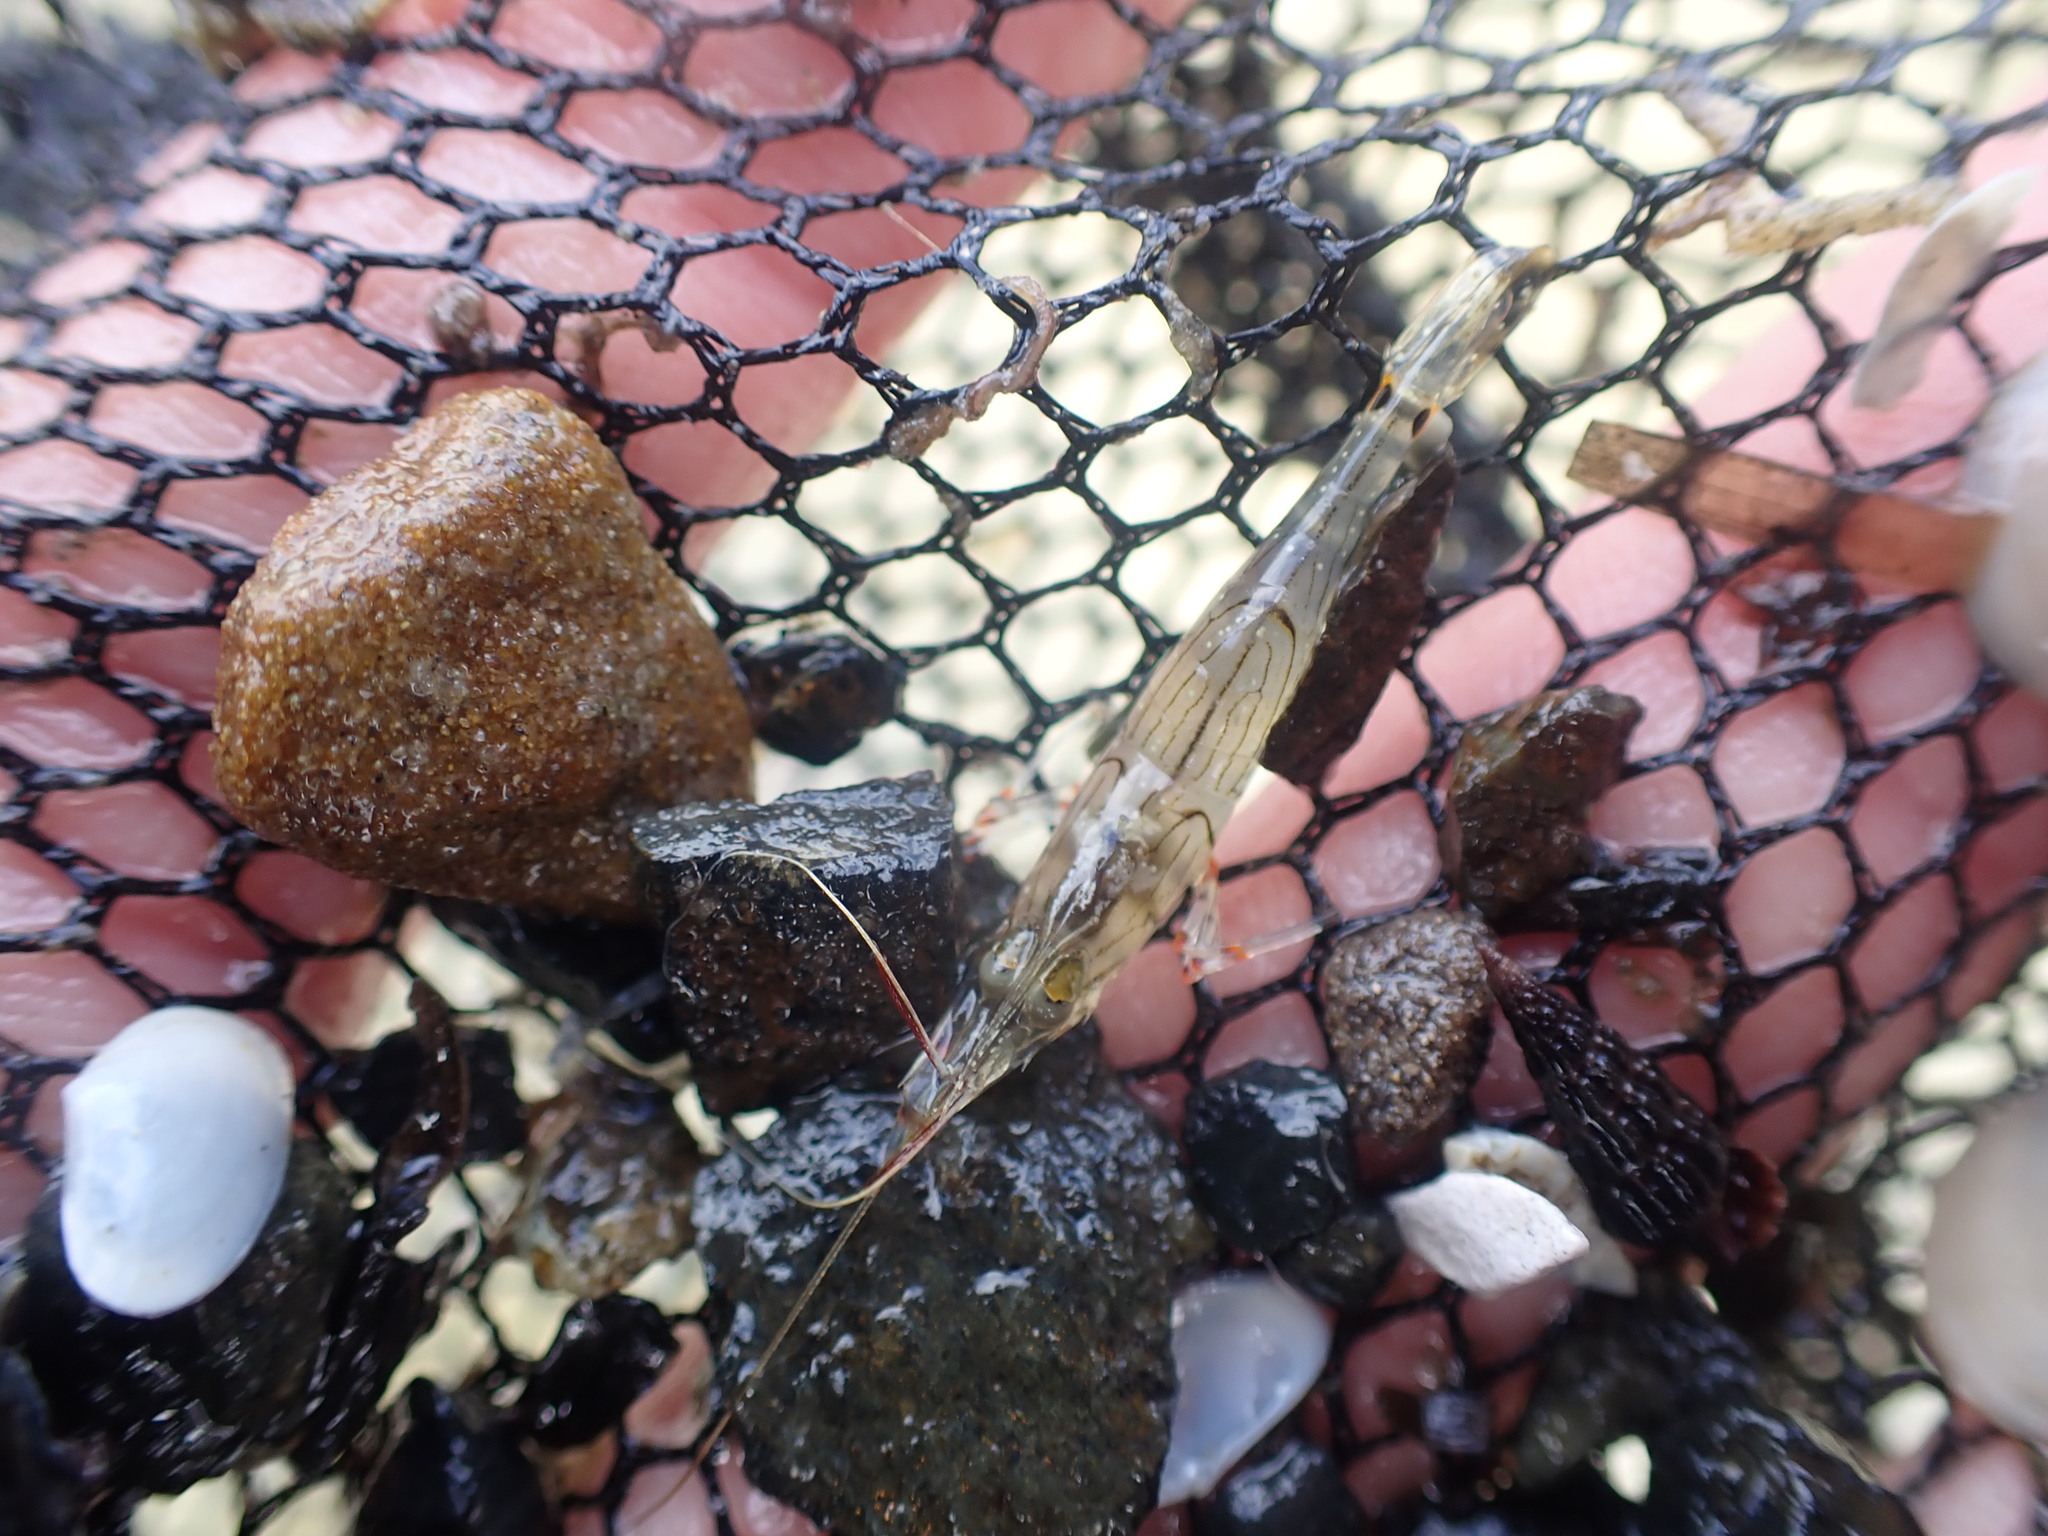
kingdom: Animalia
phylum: Arthropoda
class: Malacostraca
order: Decapoda
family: Palaemonidae
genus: Palaemon
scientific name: Palaemon affinis
